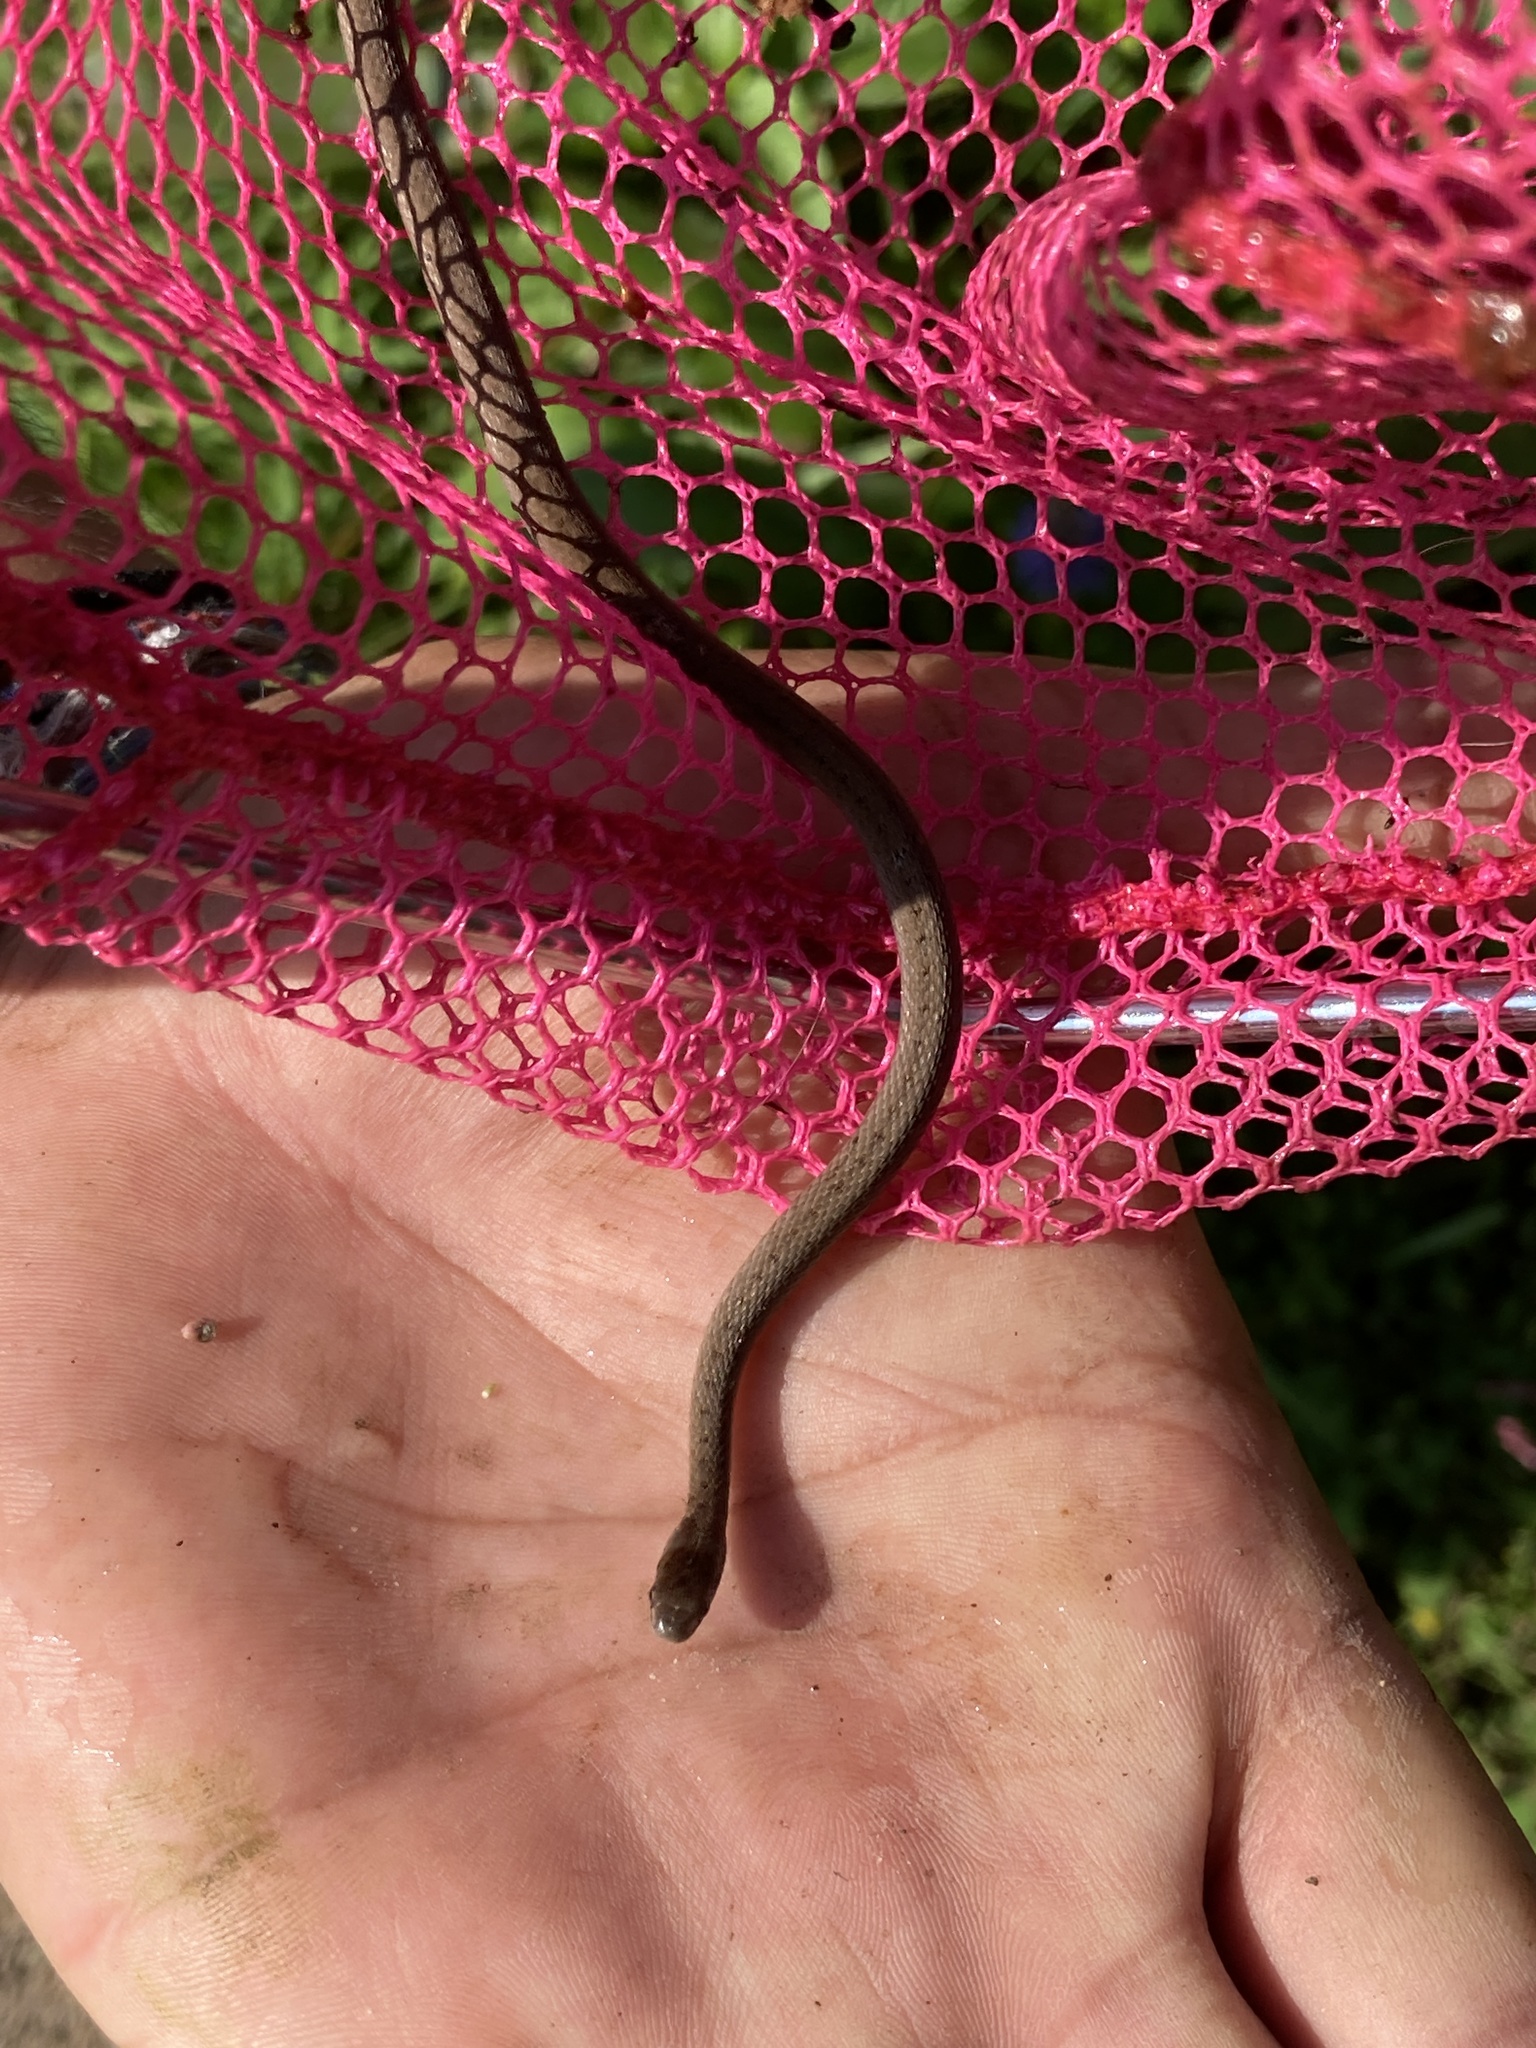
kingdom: Animalia
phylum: Chordata
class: Squamata
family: Colubridae
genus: Storeria
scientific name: Storeria dekayi
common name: (dekay’s) brown snake
